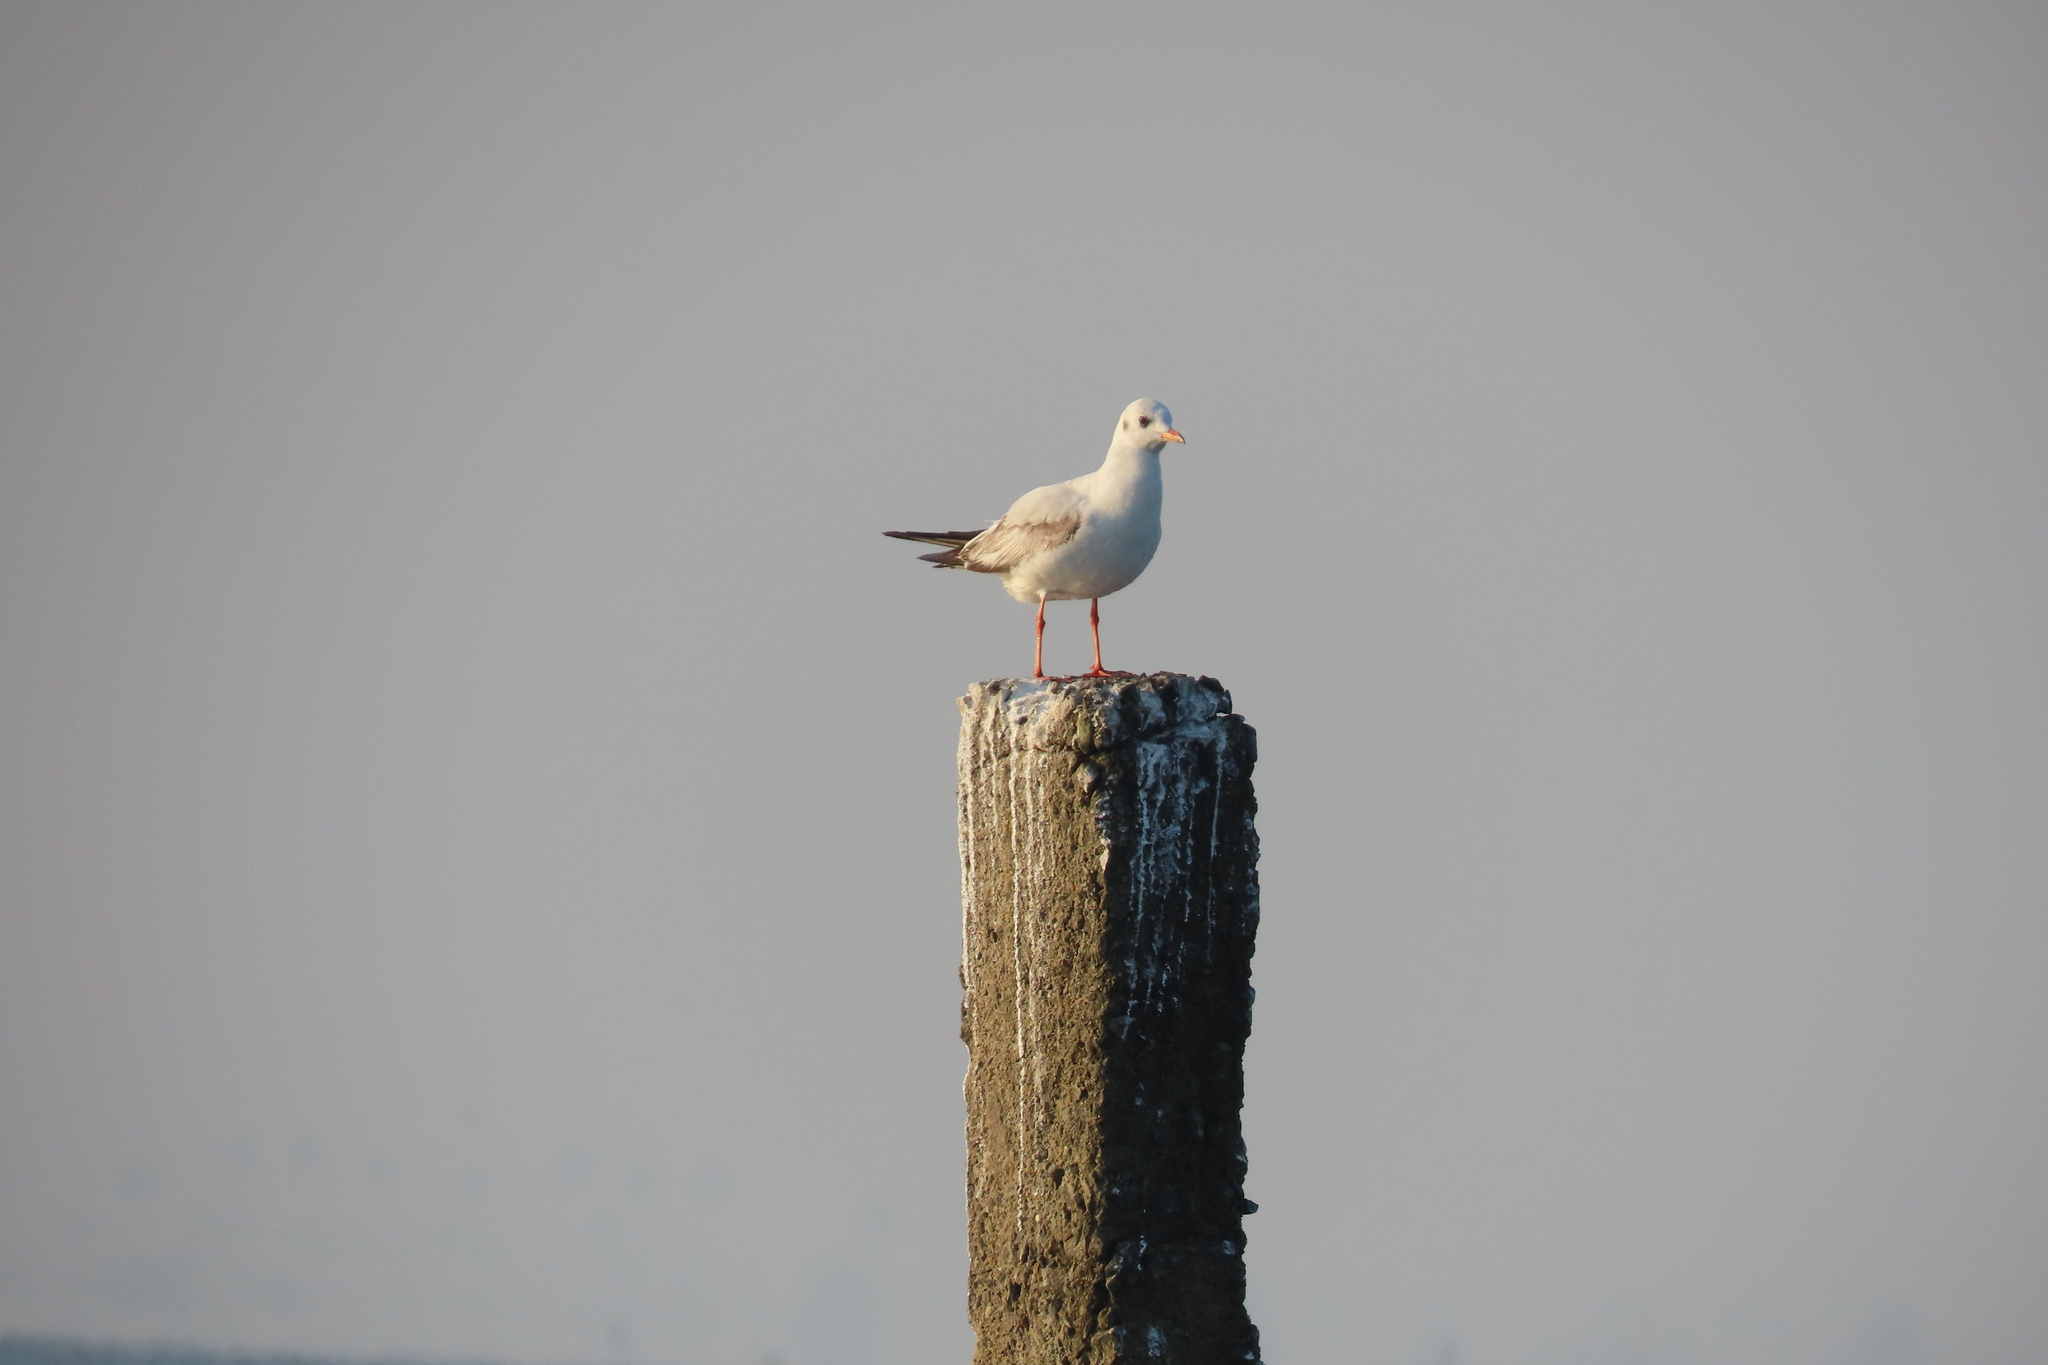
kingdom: Animalia
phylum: Chordata
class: Aves
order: Charadriiformes
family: Laridae
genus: Chroicocephalus
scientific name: Chroicocephalus ridibundus
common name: Black-headed gull
